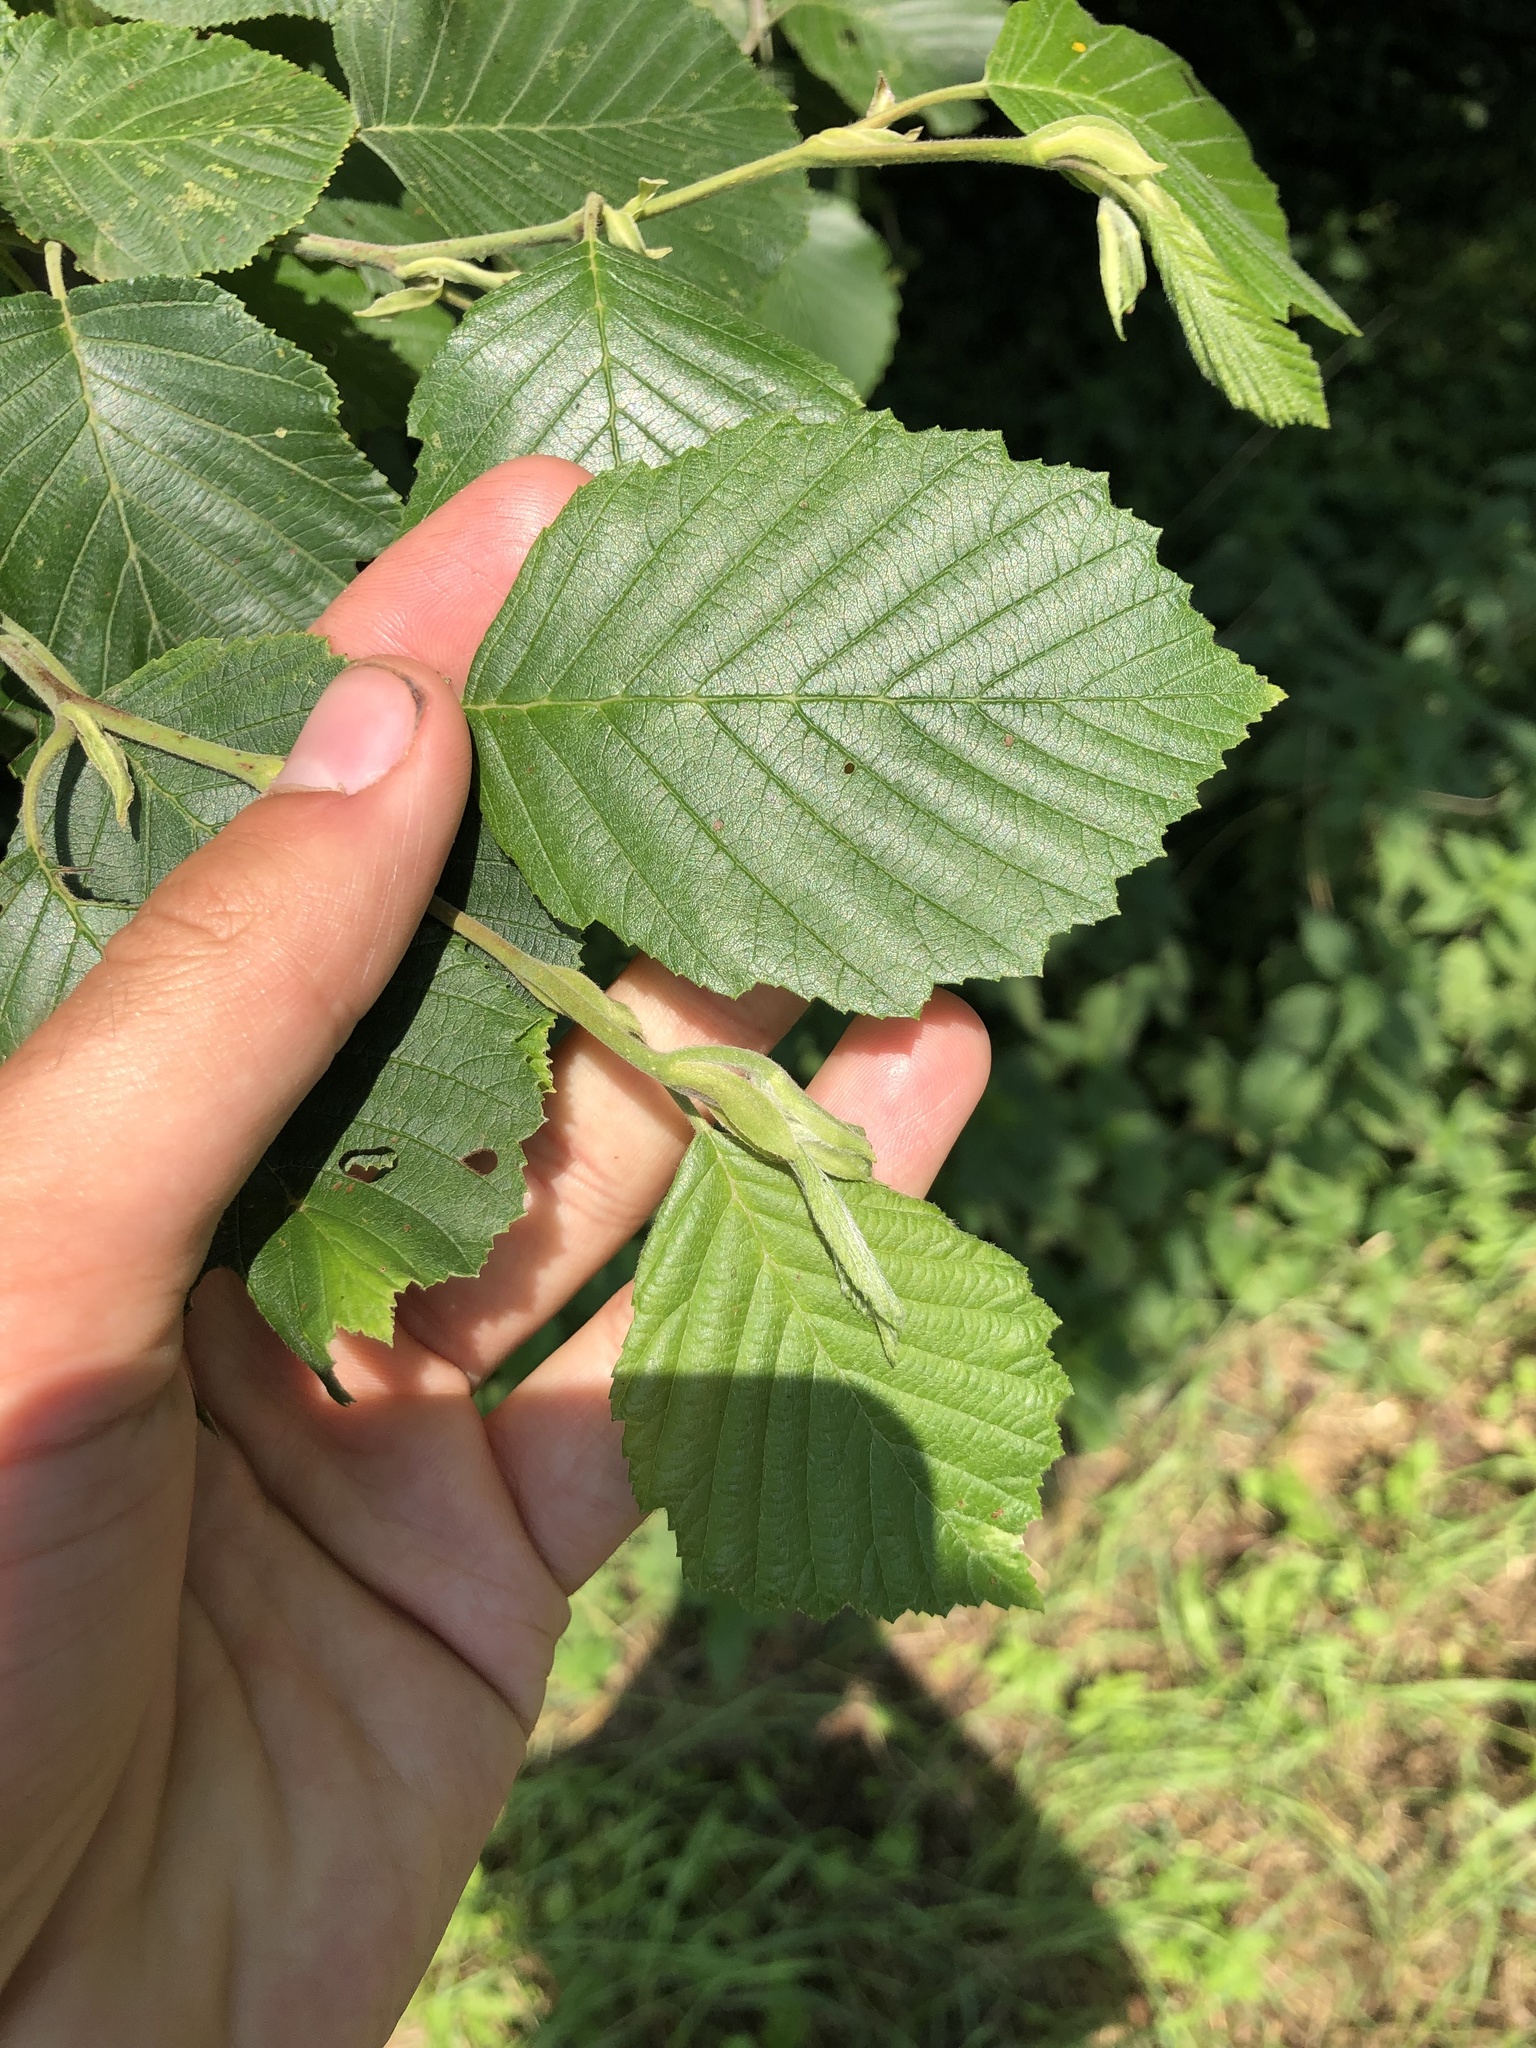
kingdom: Plantae
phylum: Tracheophyta
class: Magnoliopsida
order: Fagales
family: Betulaceae
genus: Alnus
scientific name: Alnus incana
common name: Grey alder
